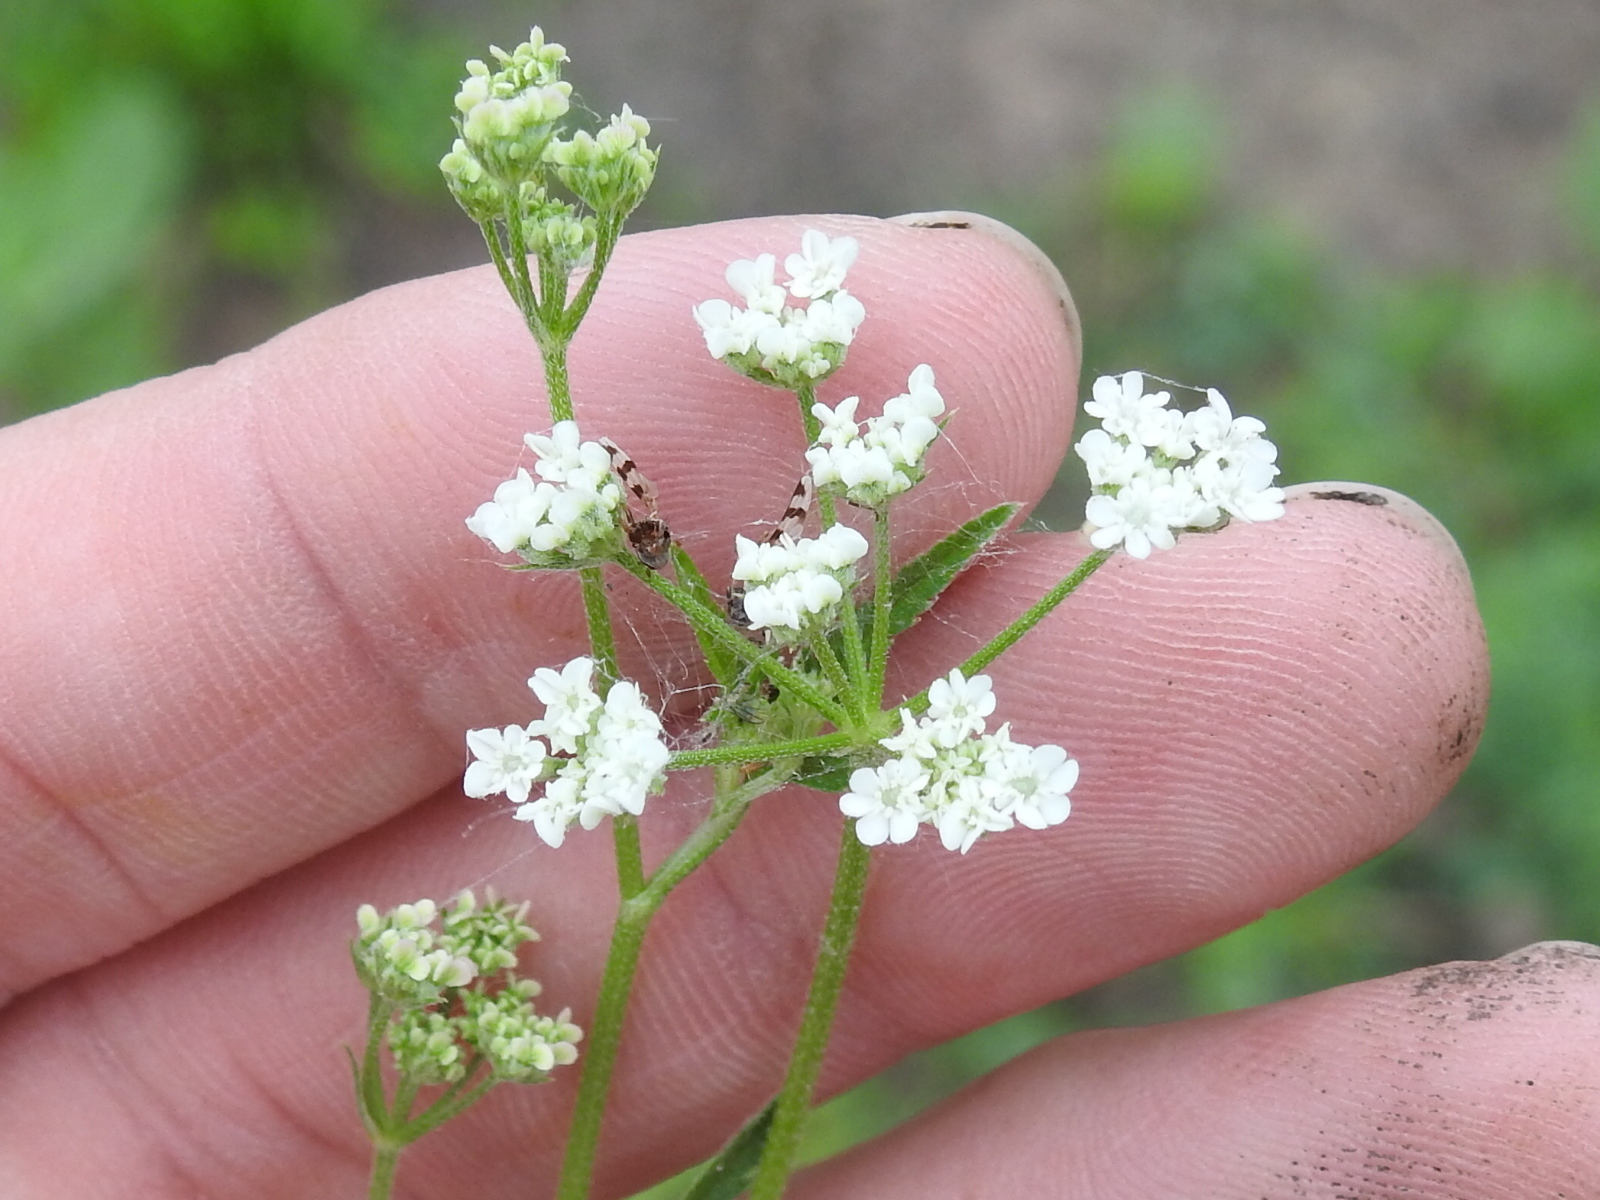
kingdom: Plantae
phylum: Tracheophyta
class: Magnoliopsida
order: Apiales
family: Apiaceae
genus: Torilis
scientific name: Torilis arvensis
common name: Spreading hedge-parsley
